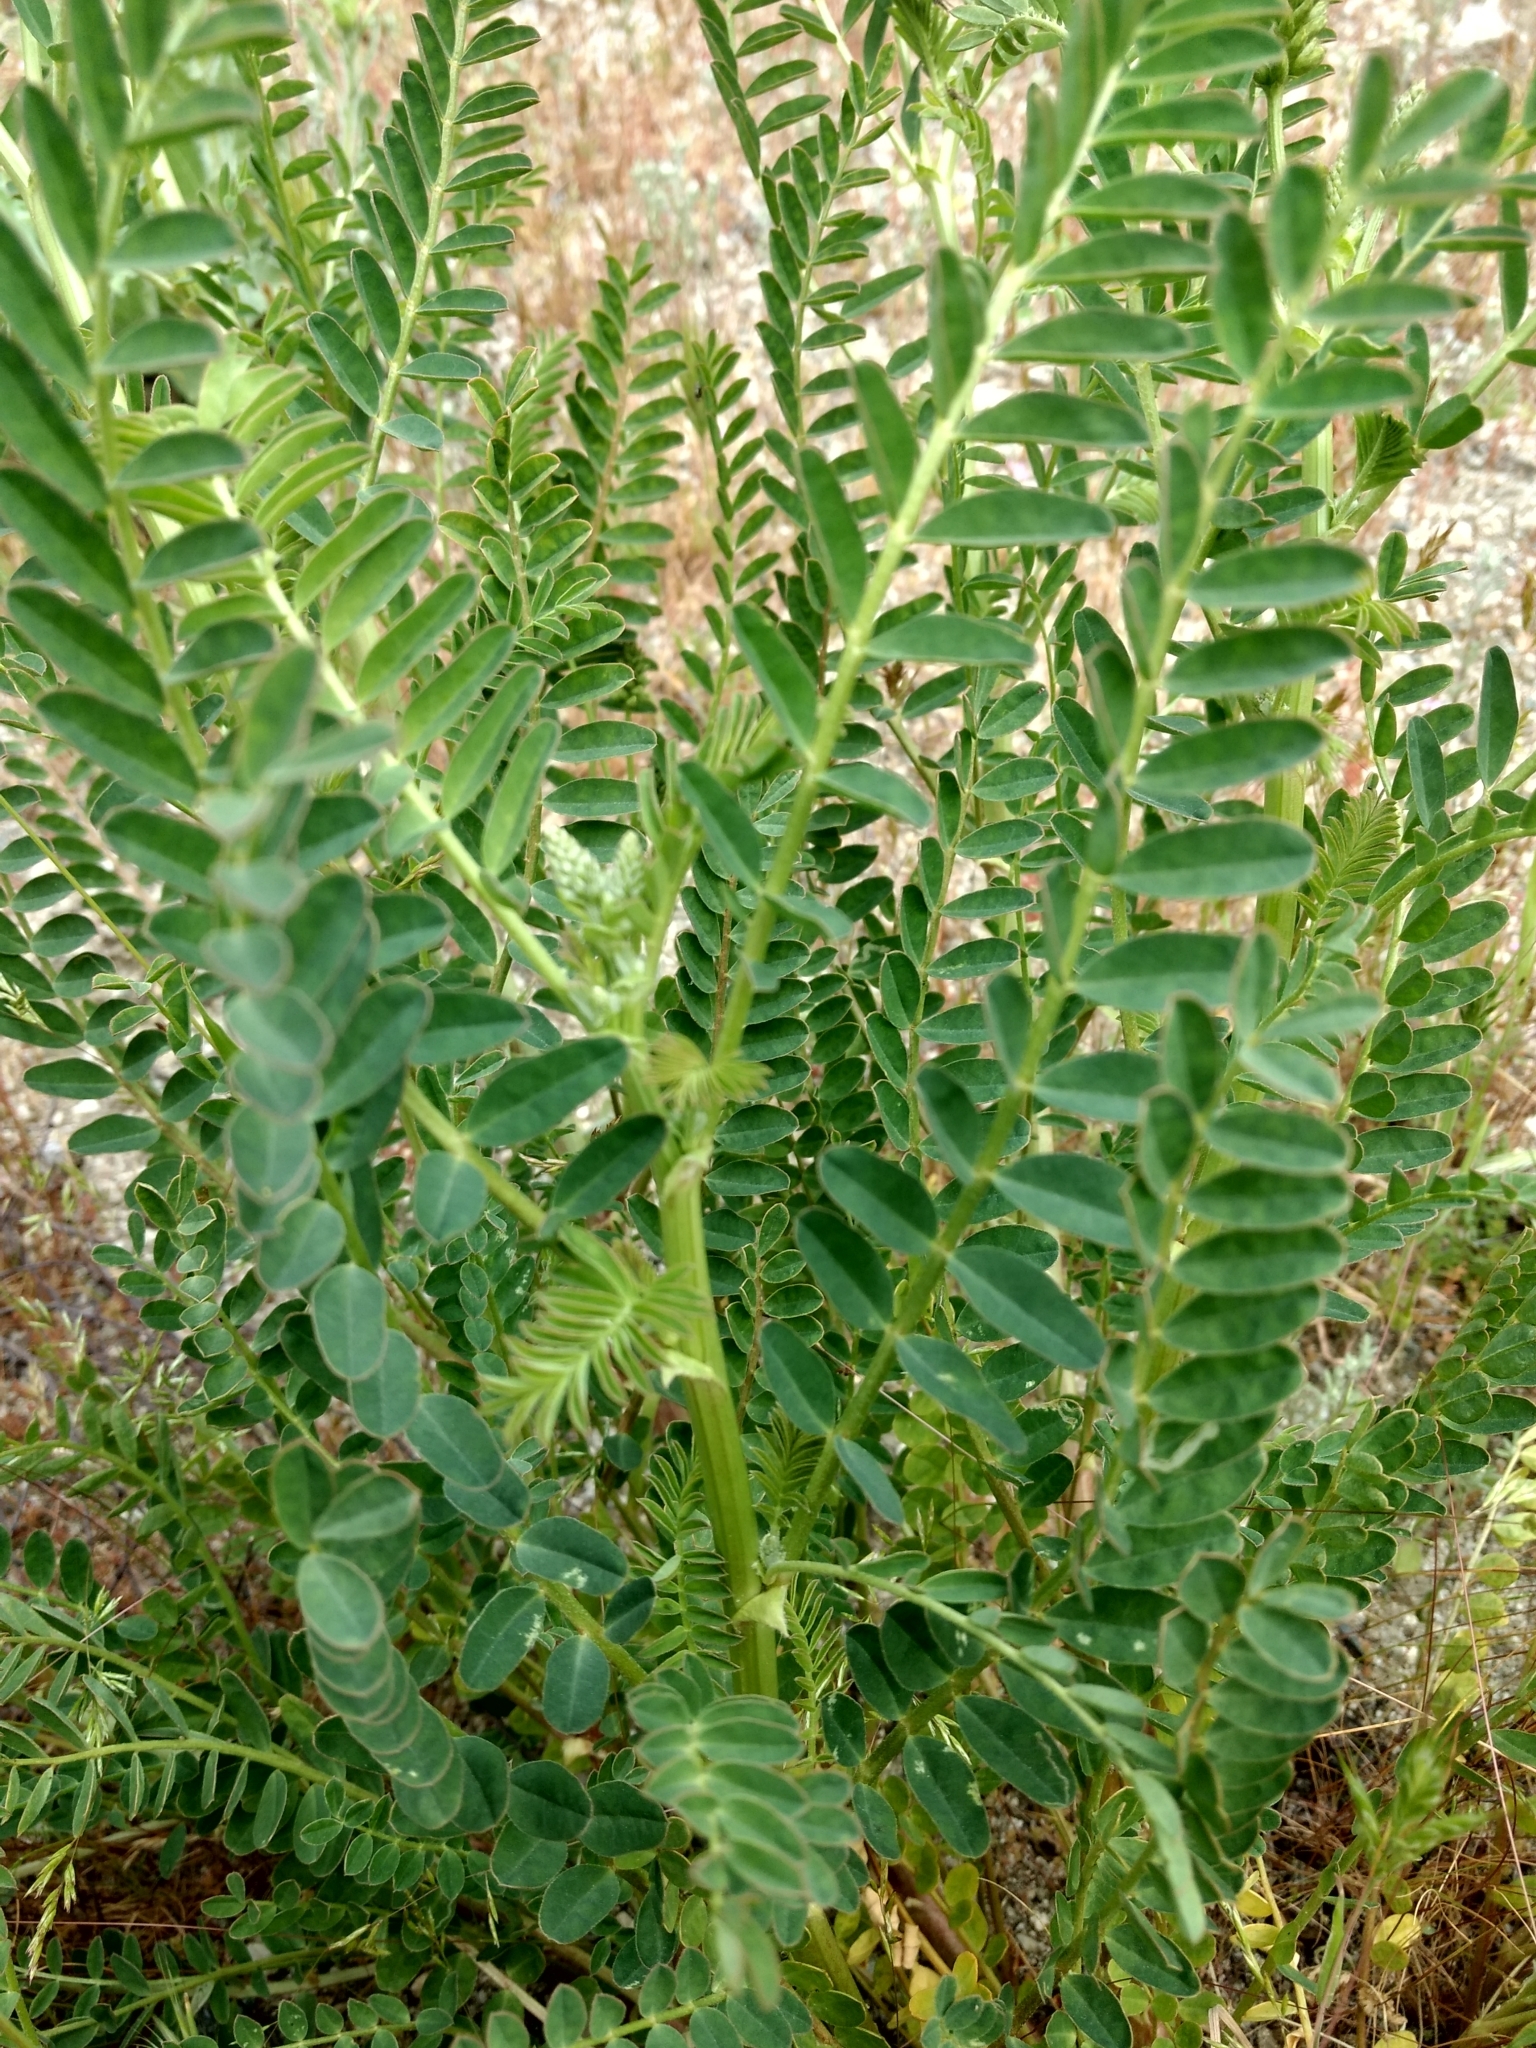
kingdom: Plantae
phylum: Tracheophyta
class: Magnoliopsida
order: Fabales
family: Fabaceae
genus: Astragalus
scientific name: Astragalus pomonensis
